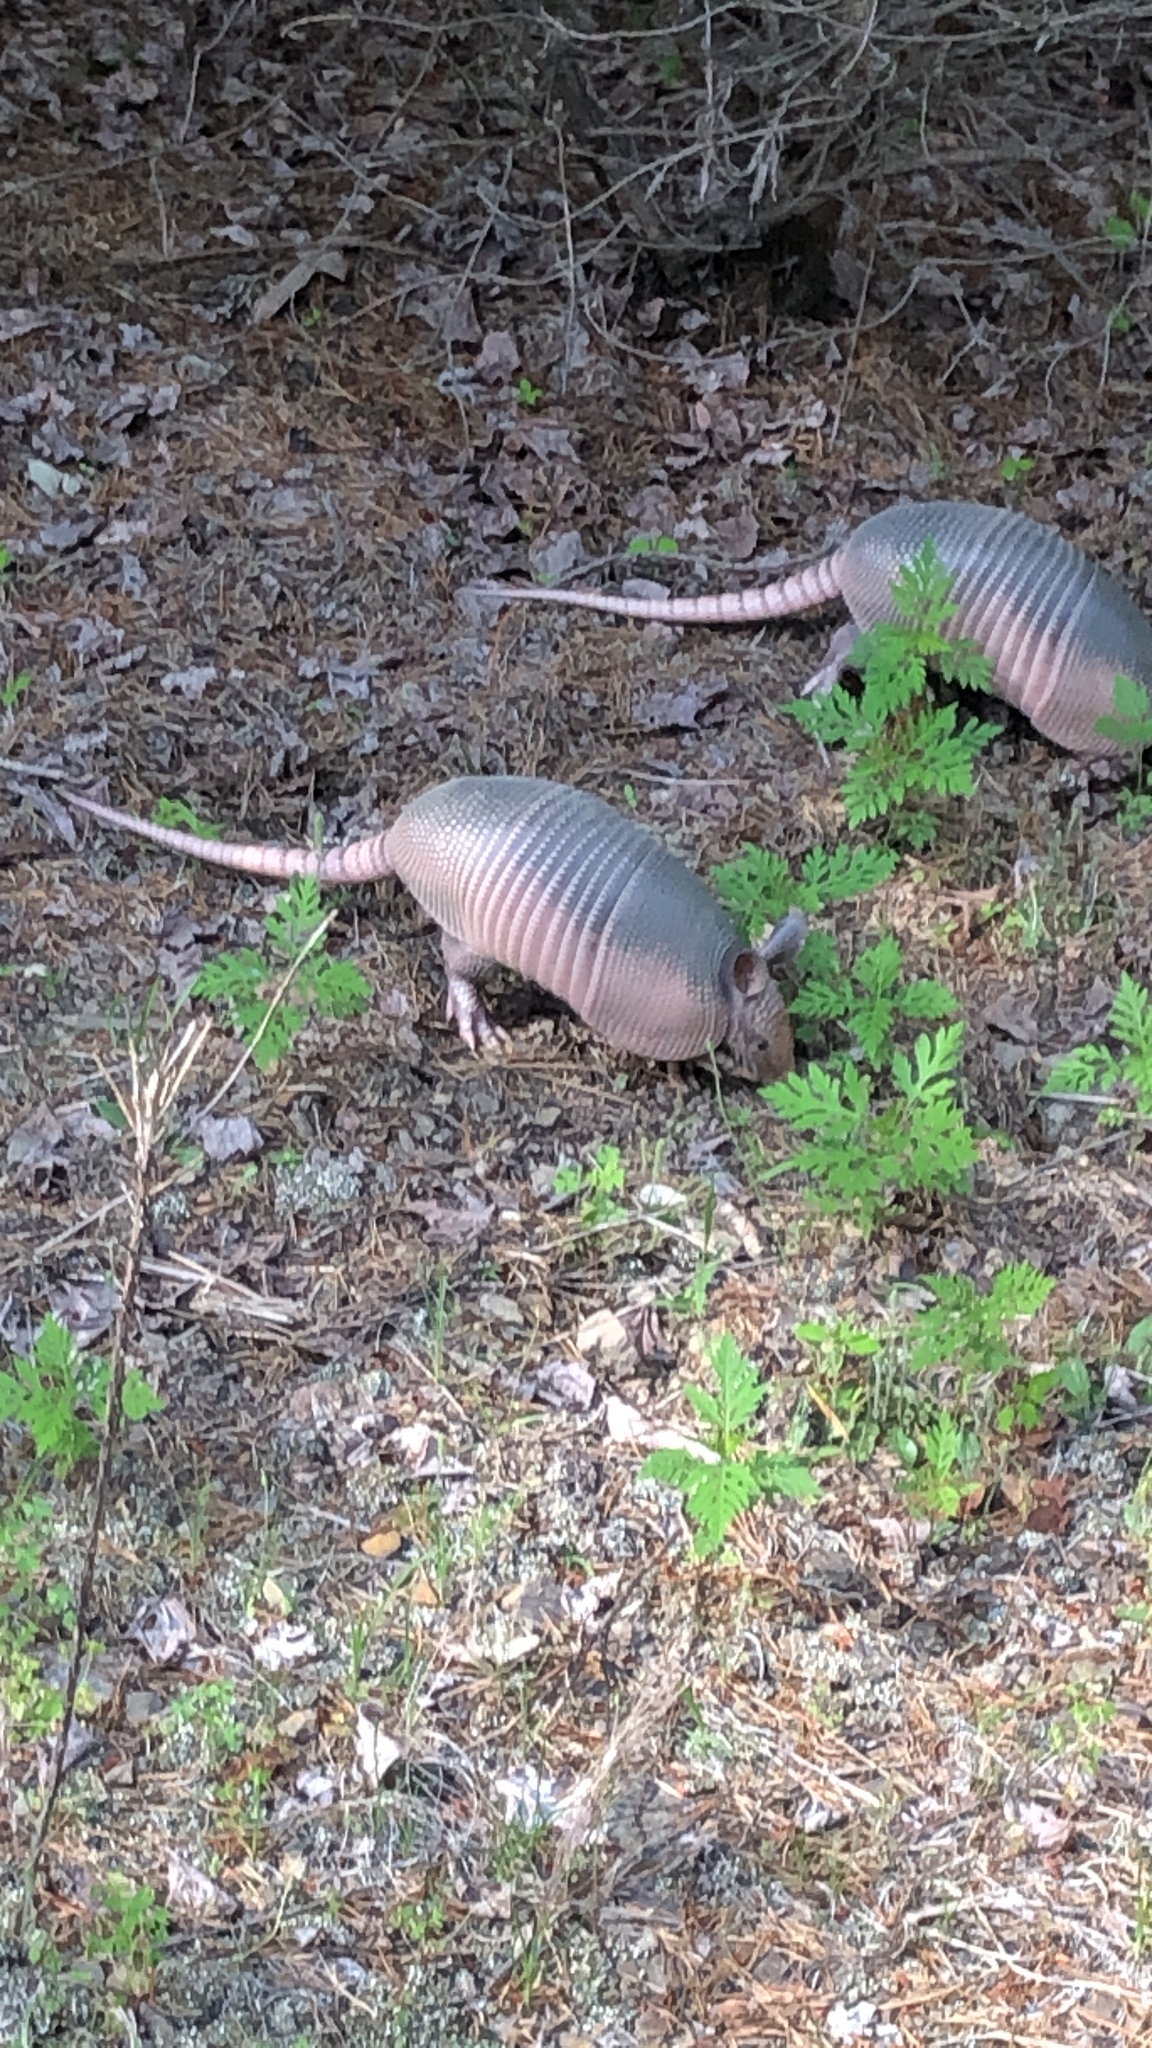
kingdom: Animalia
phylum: Chordata
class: Mammalia
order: Cingulata
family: Dasypodidae
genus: Dasypus
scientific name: Dasypus novemcinctus
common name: Nine-banded armadillo
